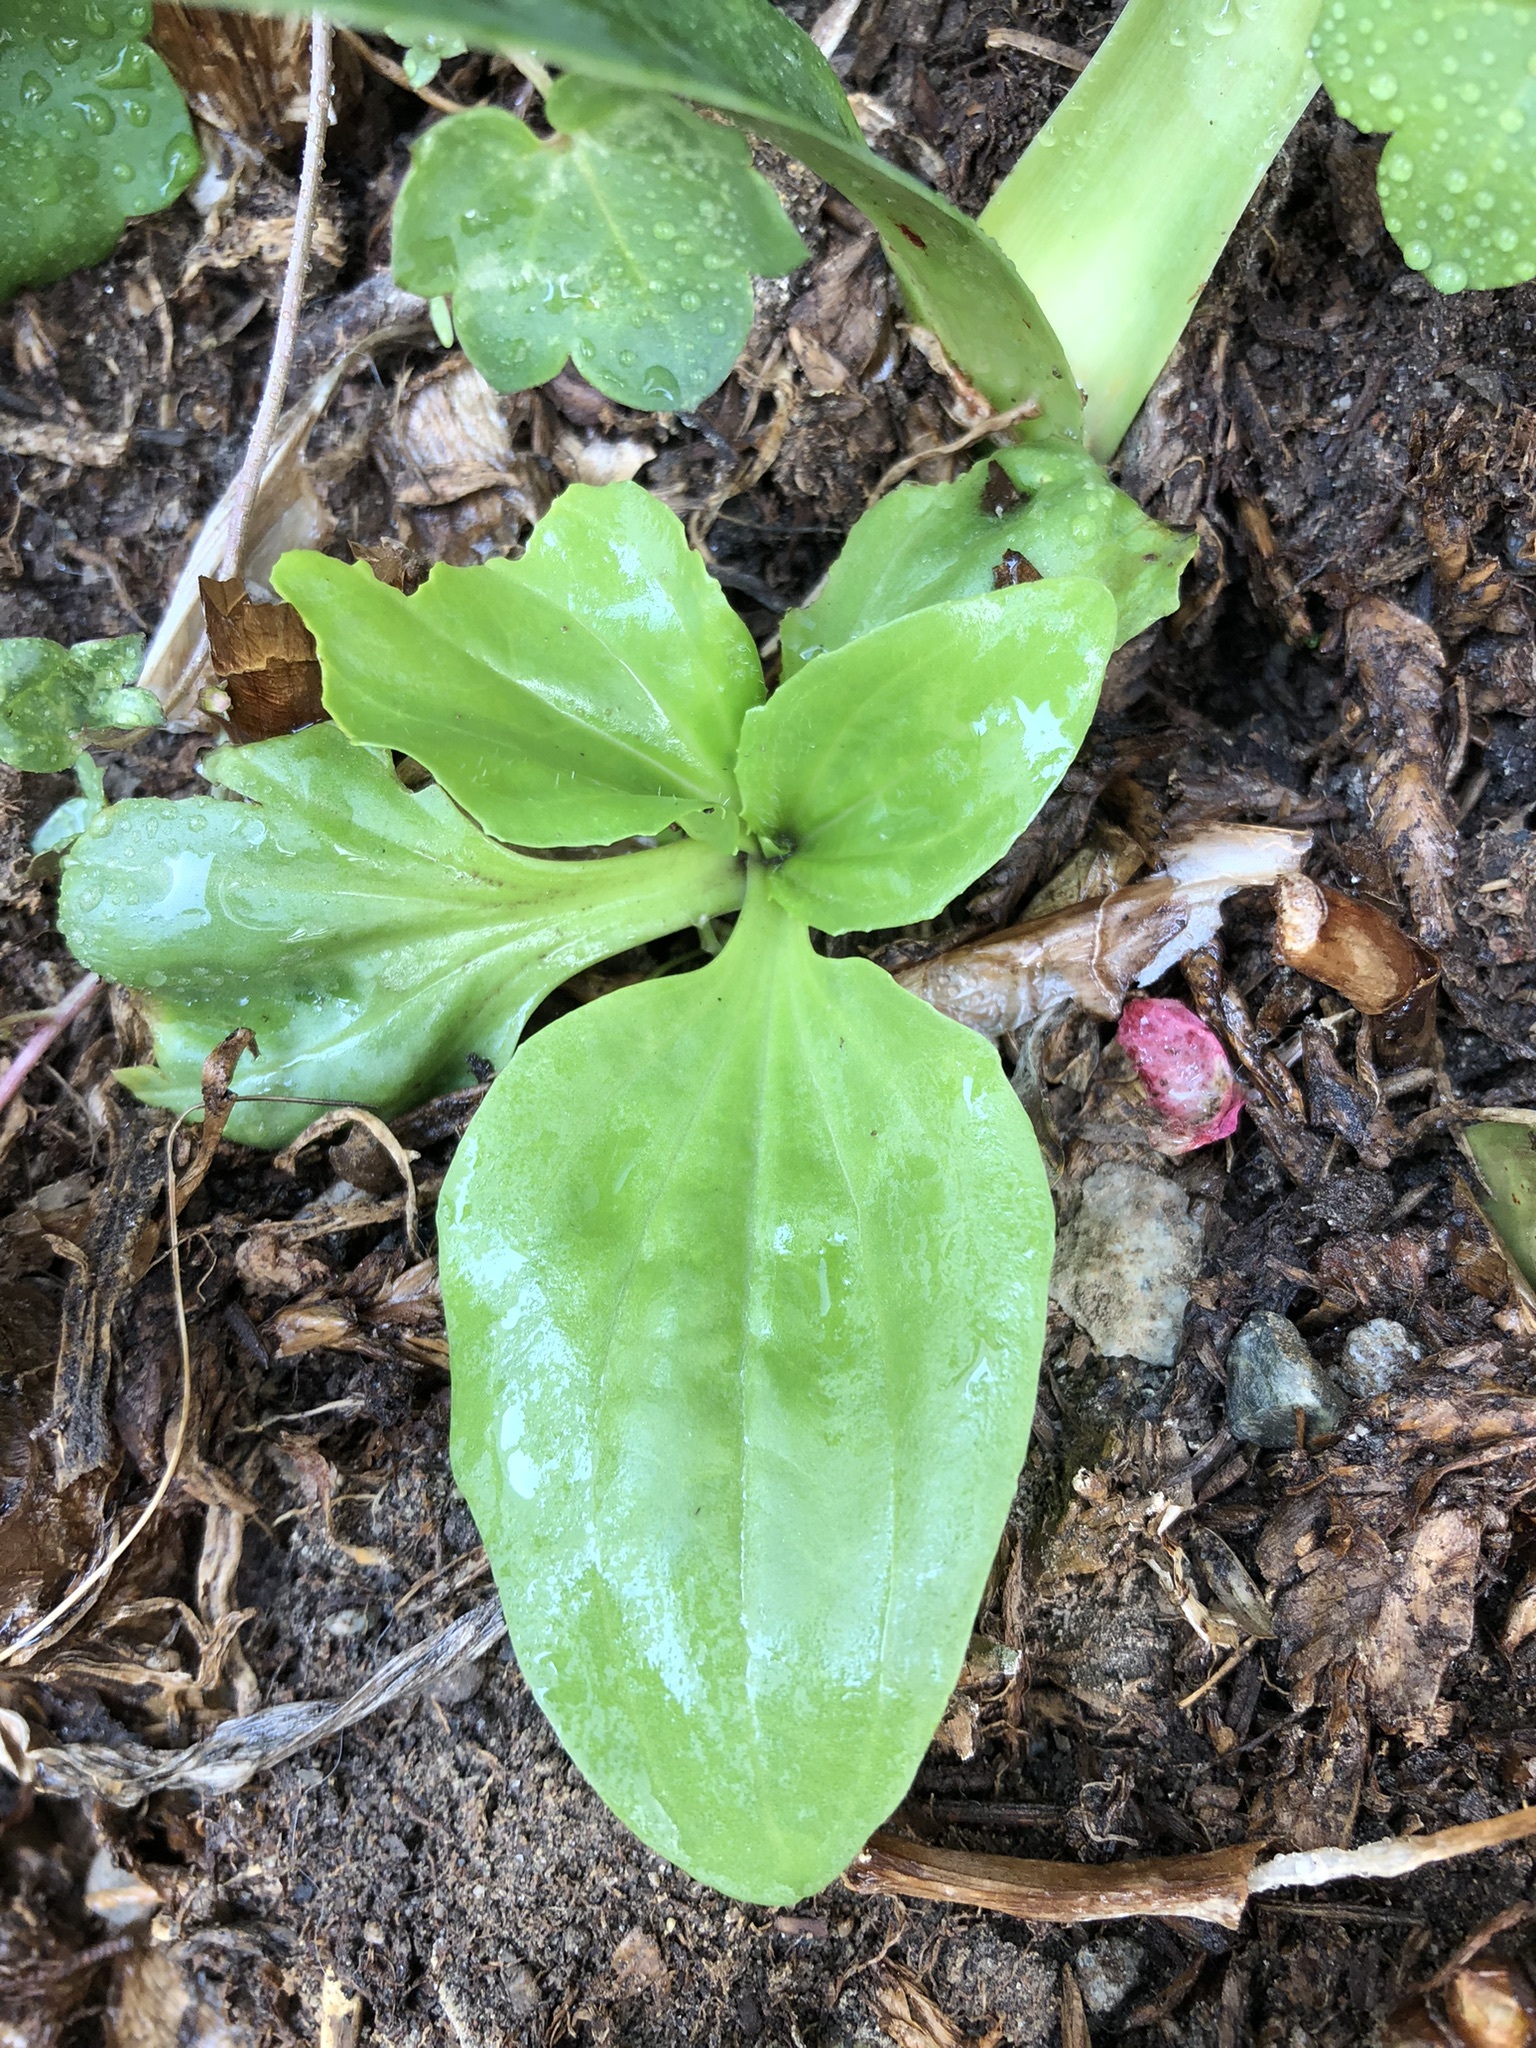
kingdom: Plantae
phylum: Tracheophyta
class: Magnoliopsida
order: Lamiales
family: Plantaginaceae
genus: Plantago
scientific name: Plantago major
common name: Common plantain
